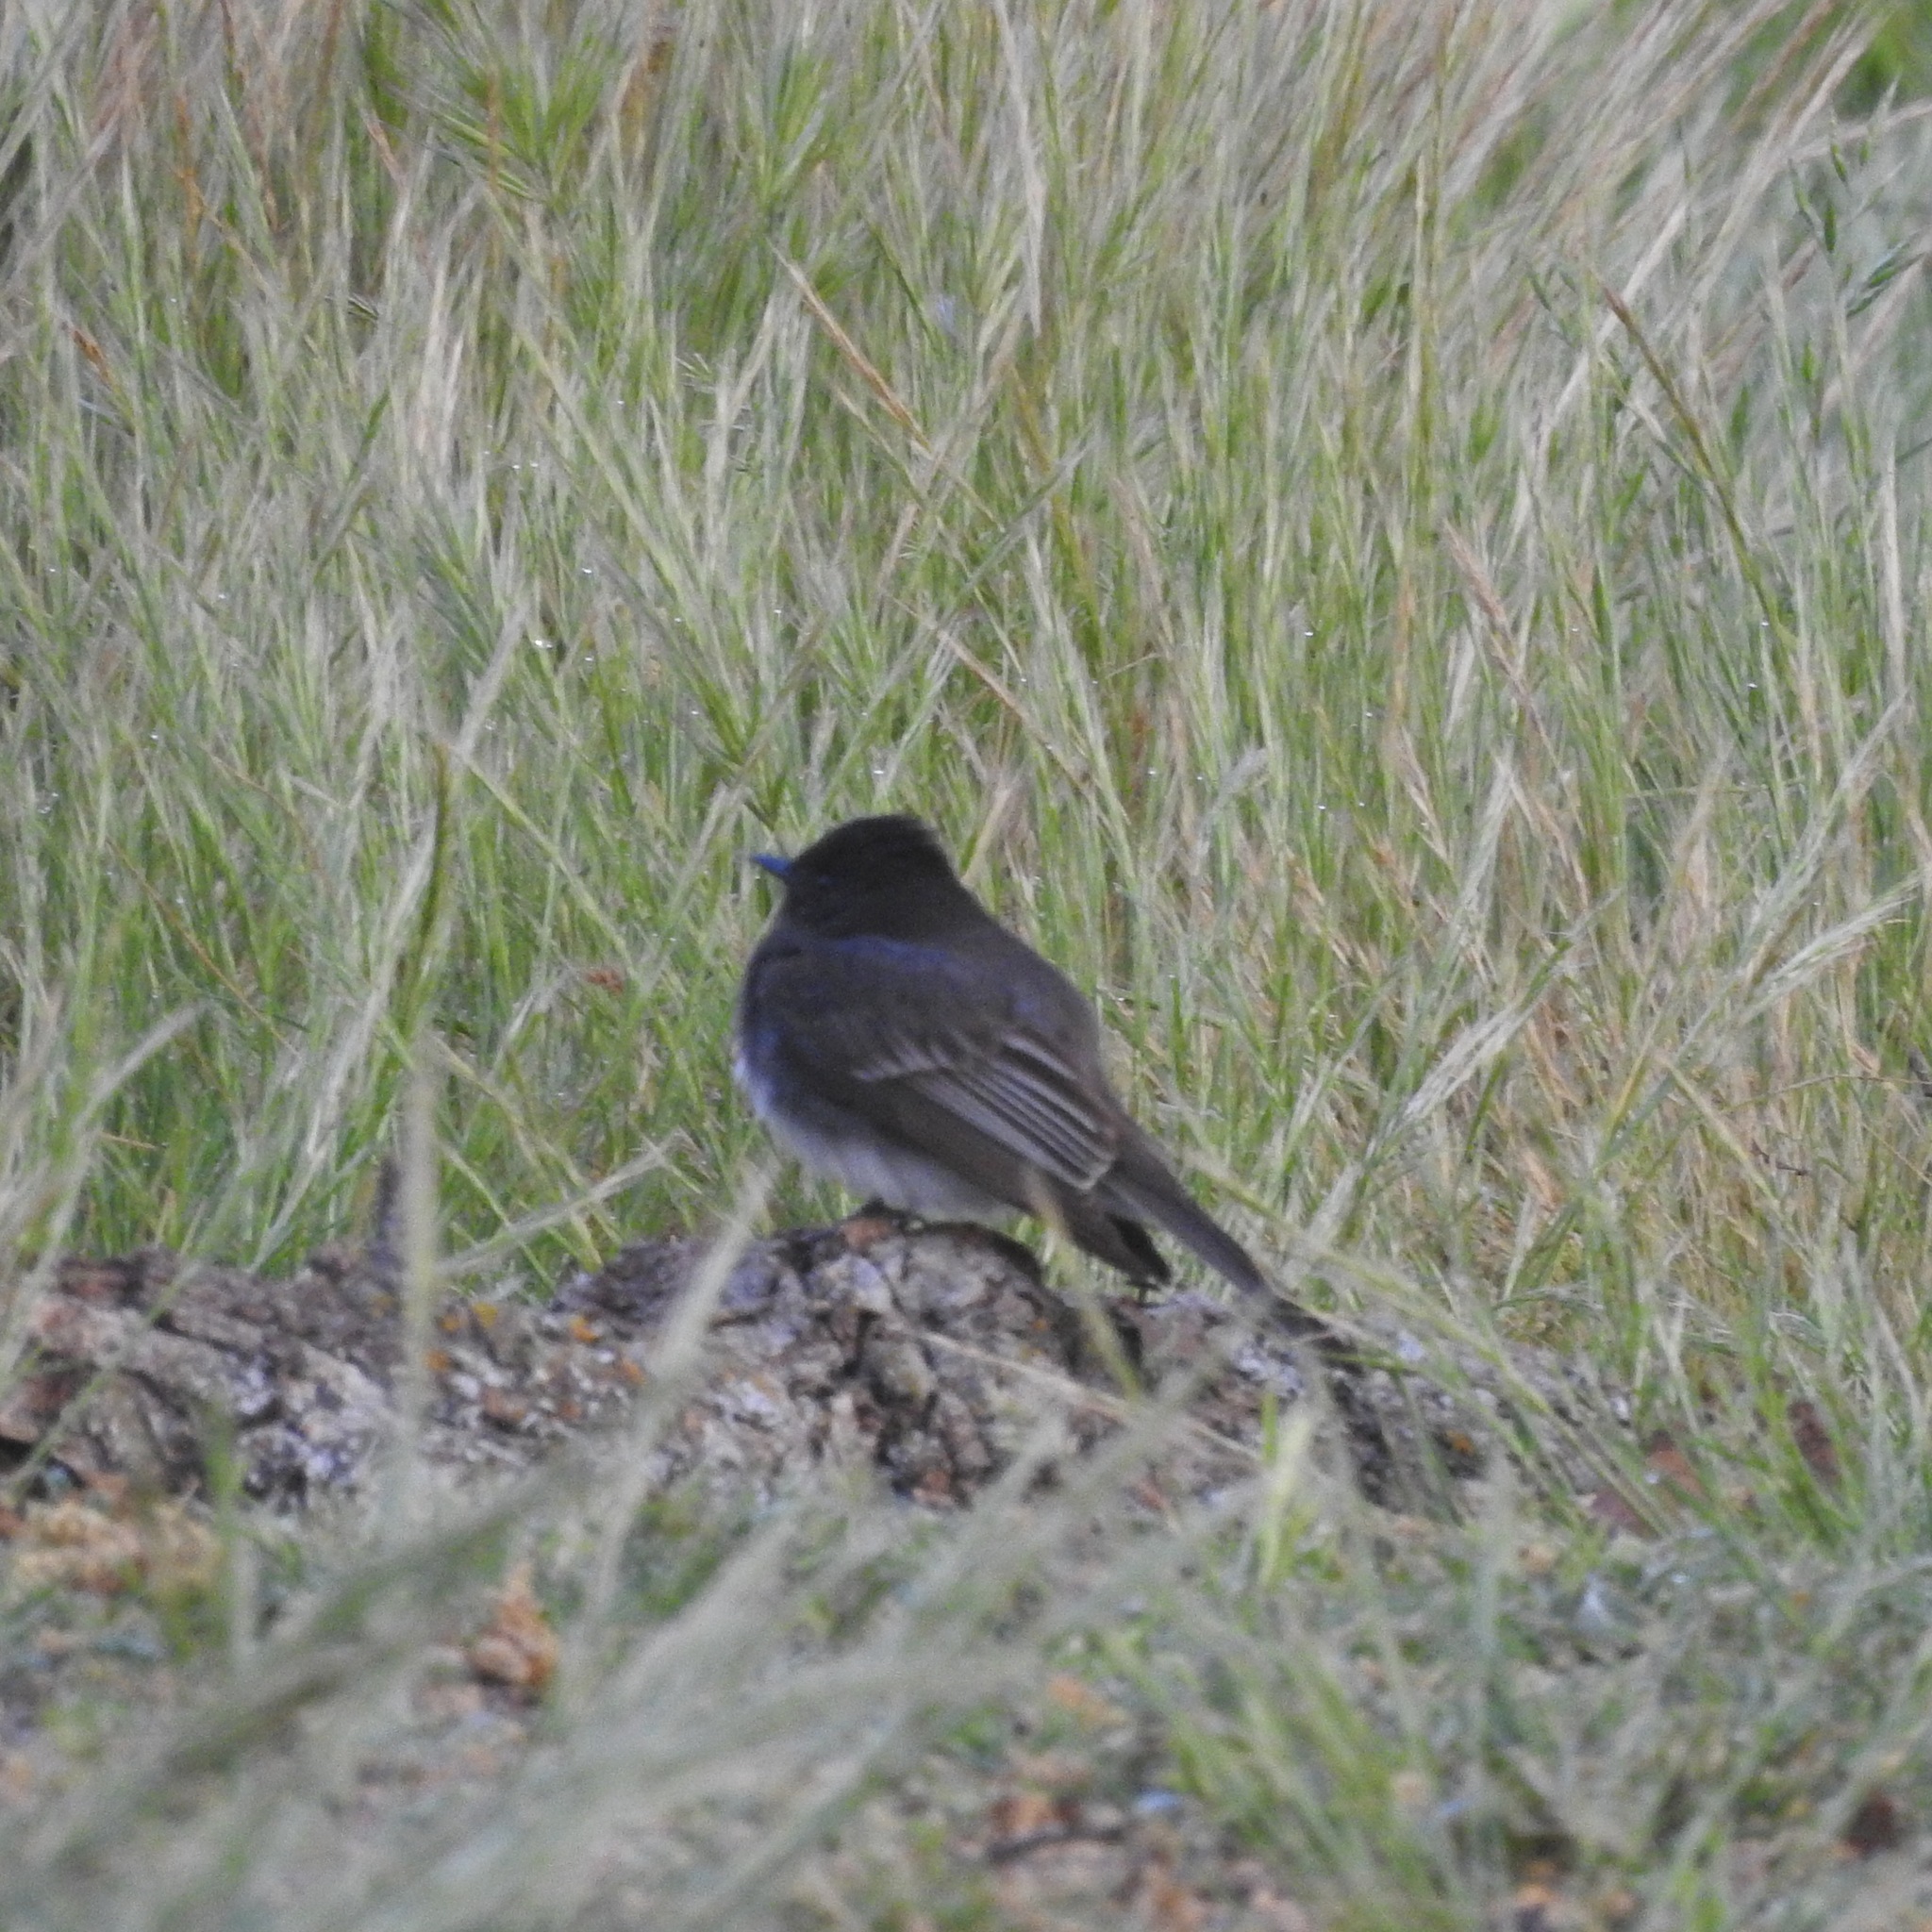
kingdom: Animalia
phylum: Chordata
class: Aves
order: Passeriformes
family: Tyrannidae
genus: Sayornis
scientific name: Sayornis nigricans
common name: Black phoebe
